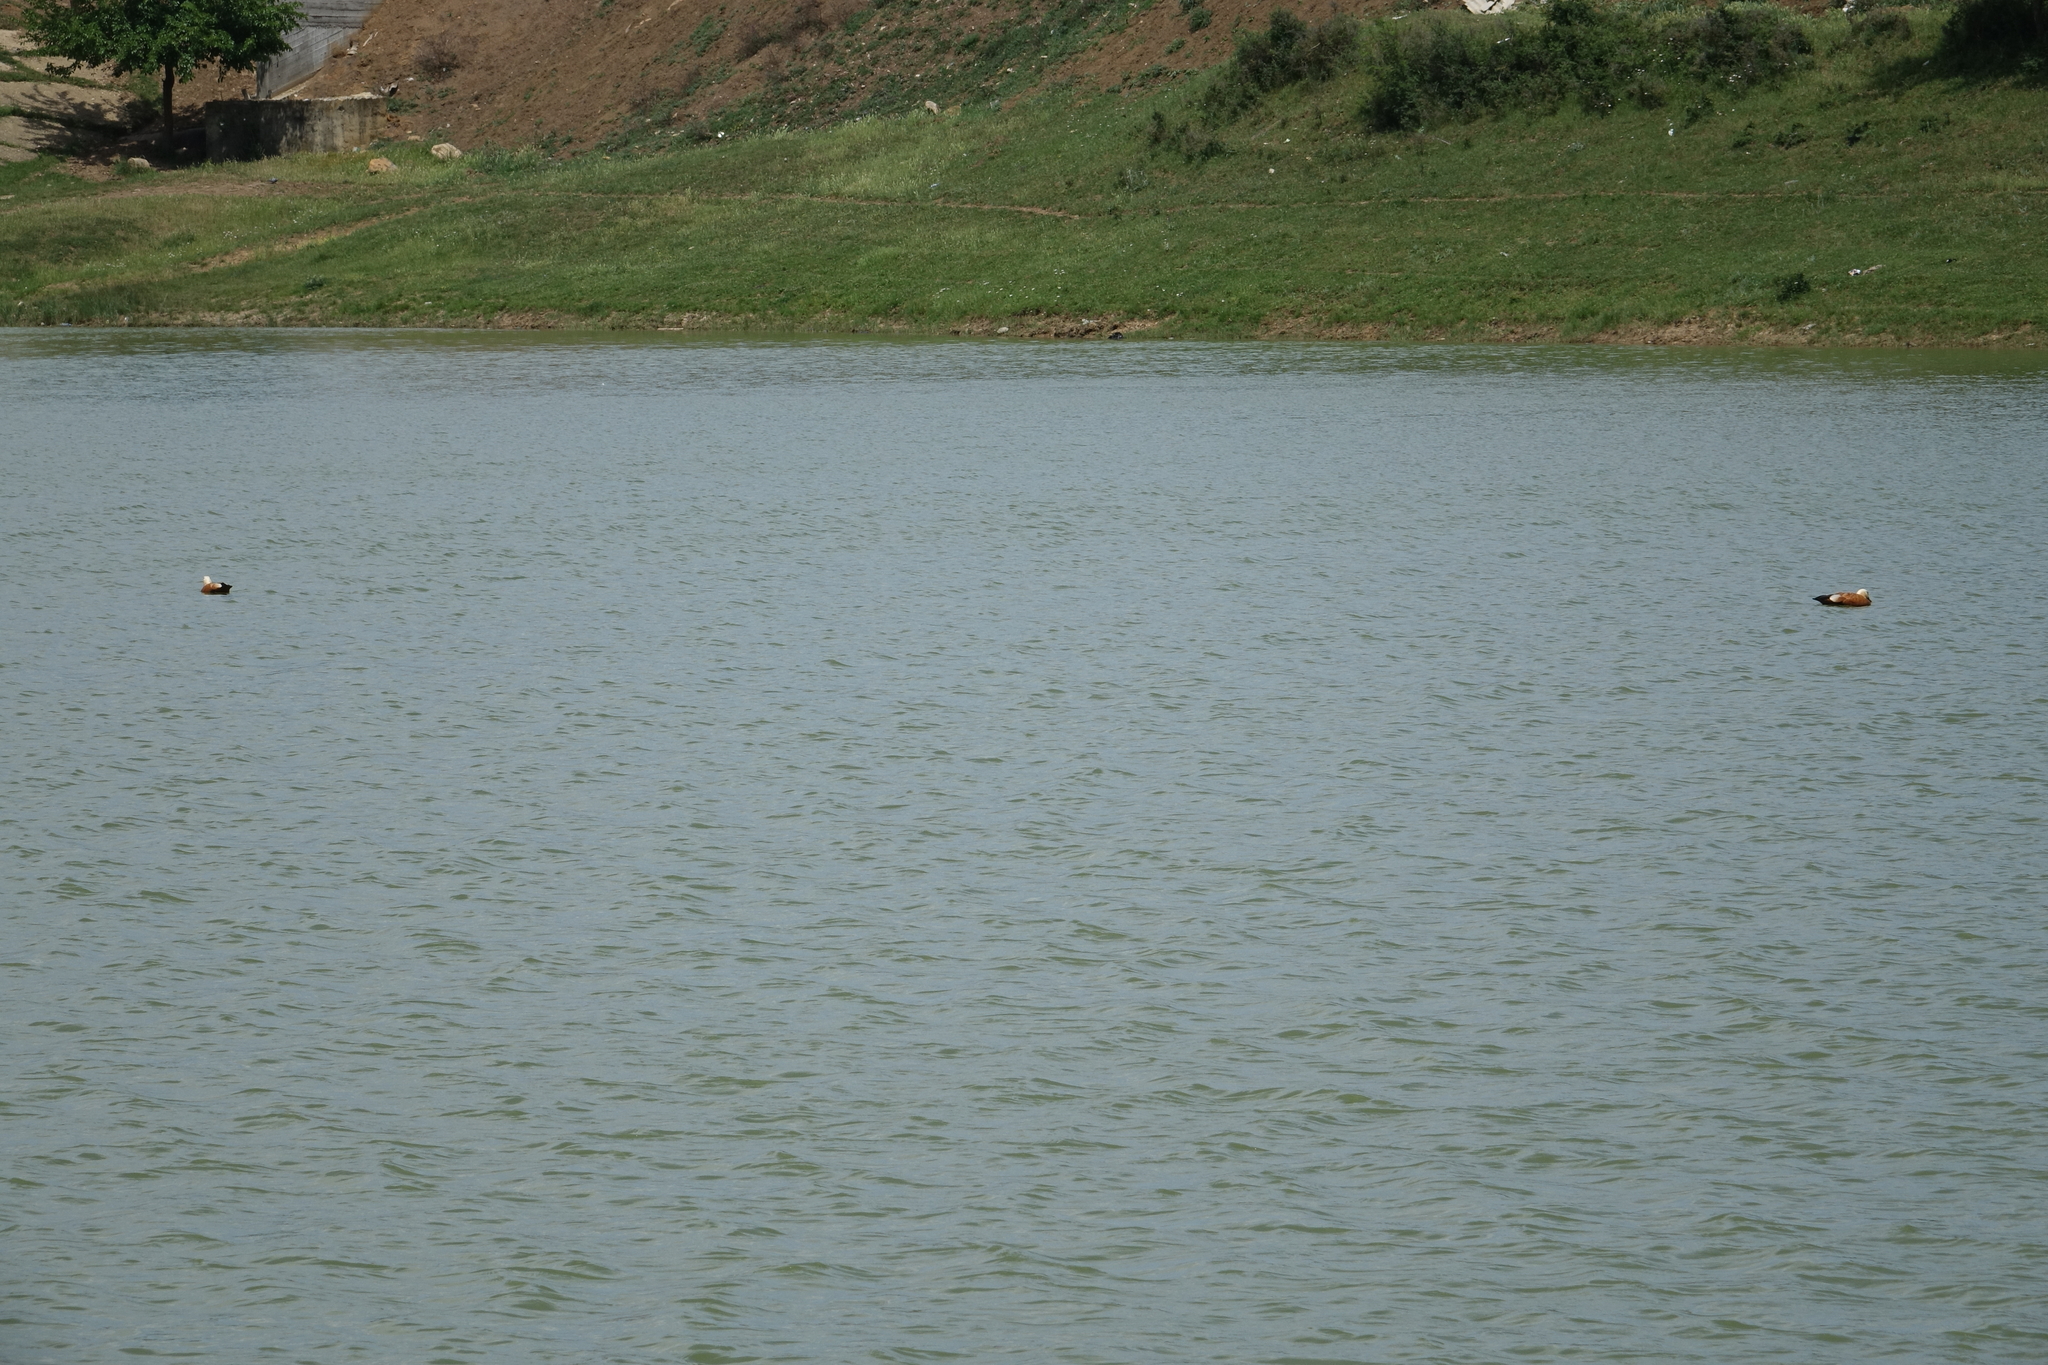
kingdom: Animalia
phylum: Chordata
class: Aves
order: Anseriformes
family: Anatidae
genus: Tadorna
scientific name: Tadorna ferruginea
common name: Ruddy shelduck
